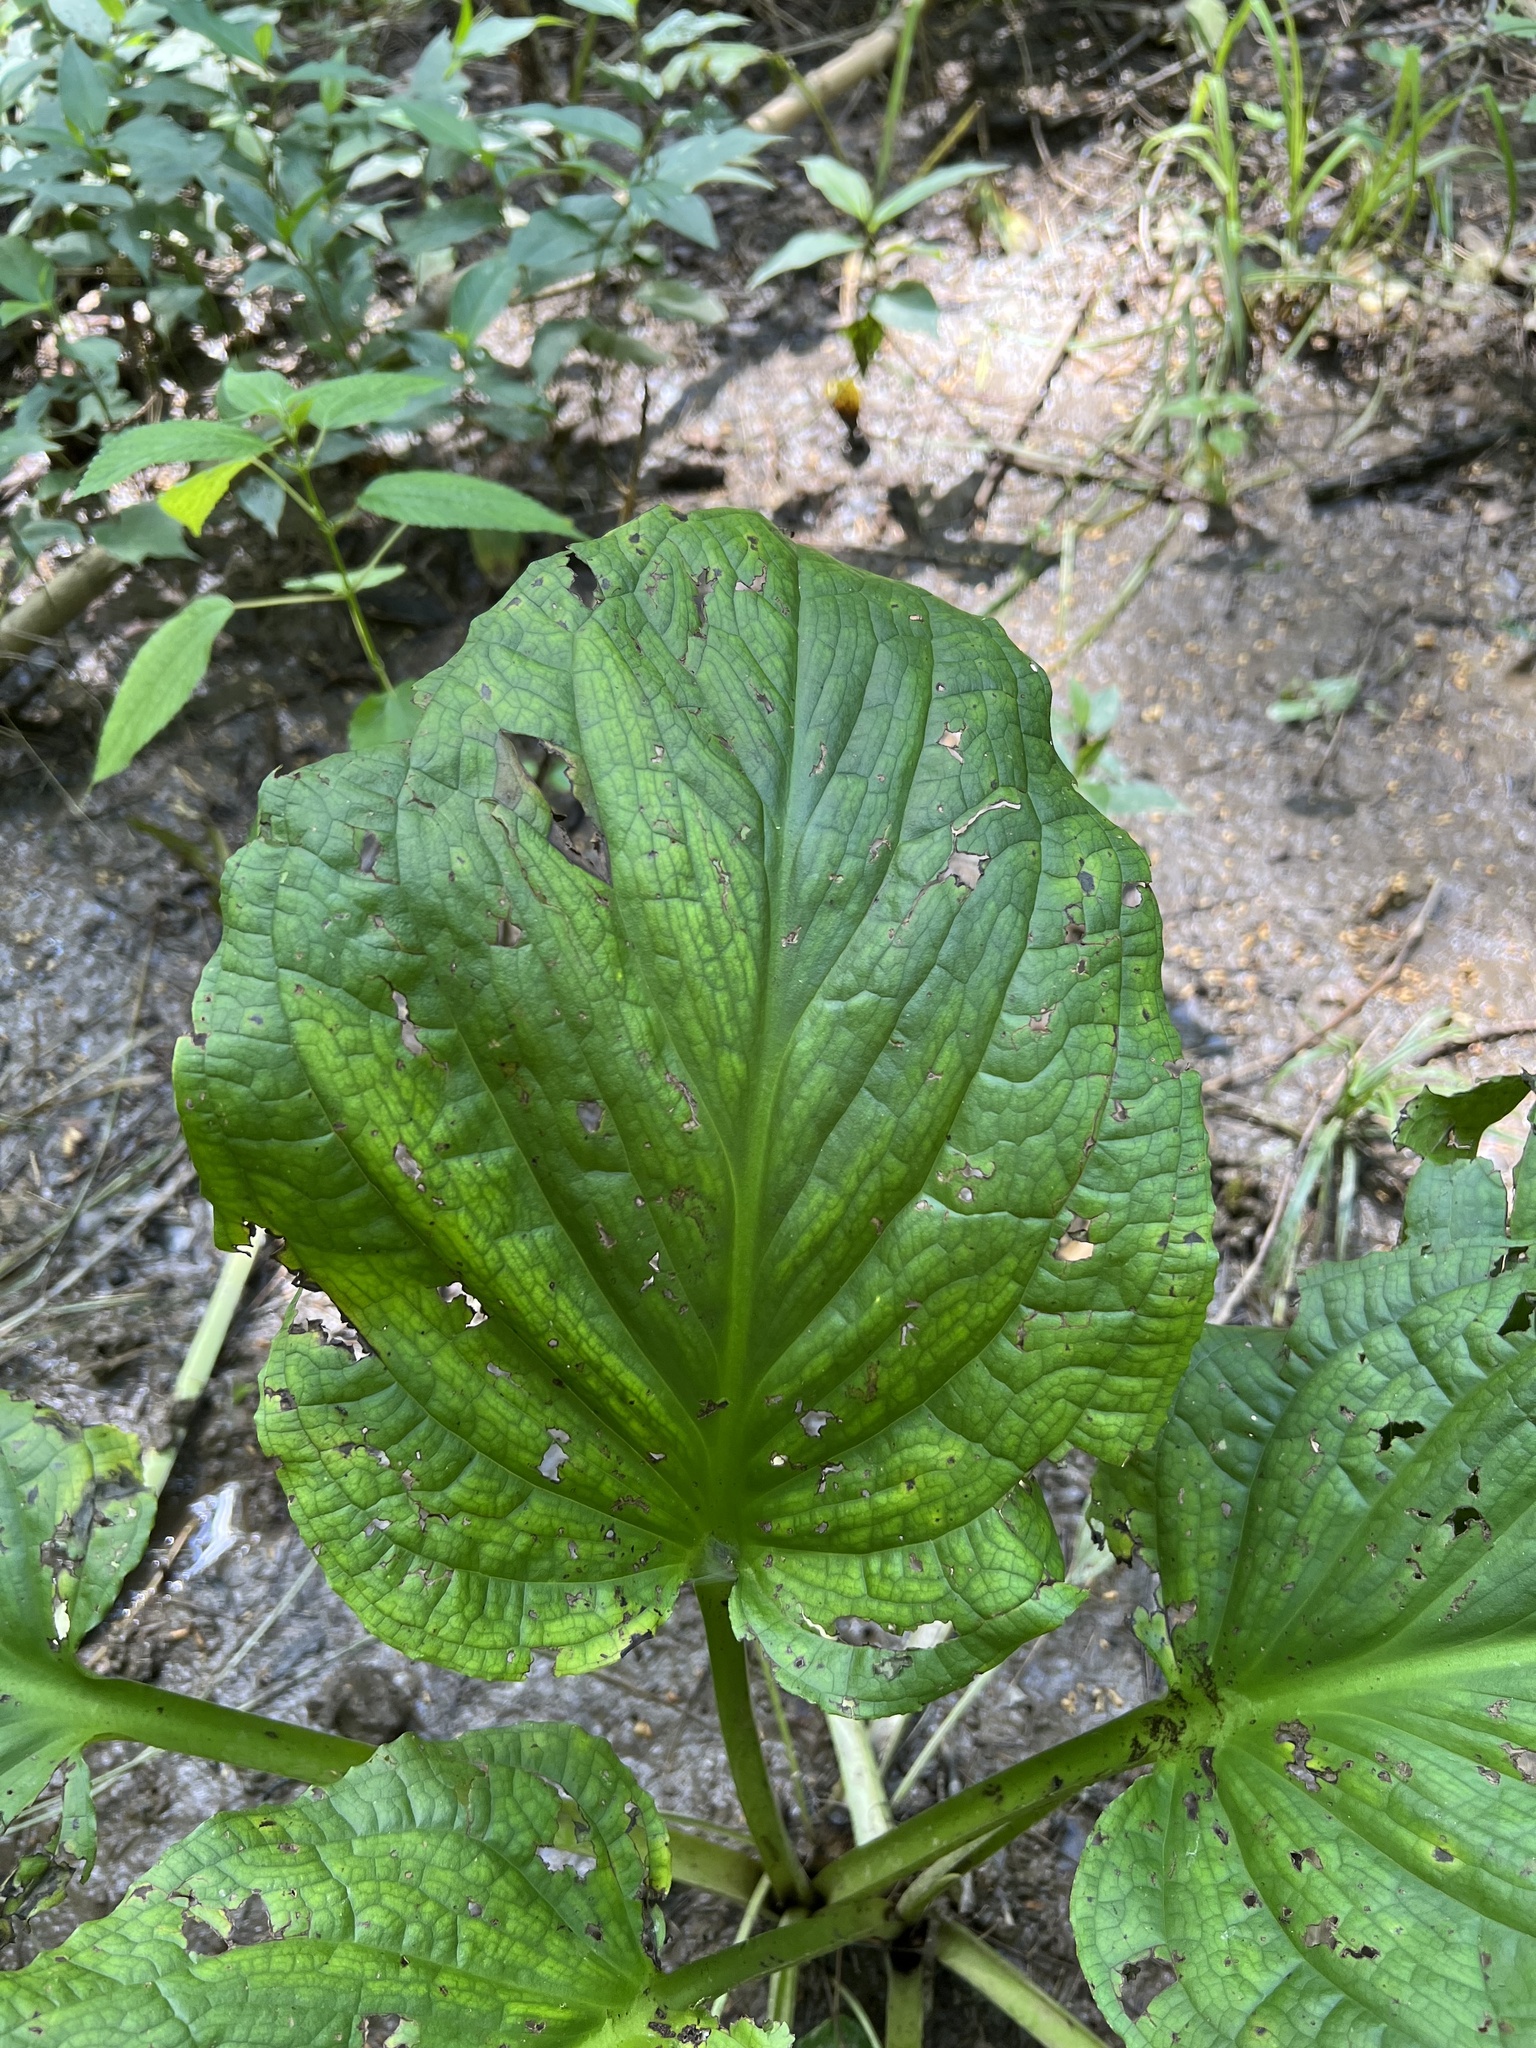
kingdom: Plantae
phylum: Tracheophyta
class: Liliopsida
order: Alismatales
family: Araceae
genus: Symplocarpus
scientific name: Symplocarpus foetidus
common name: Eastern skunk cabbage
